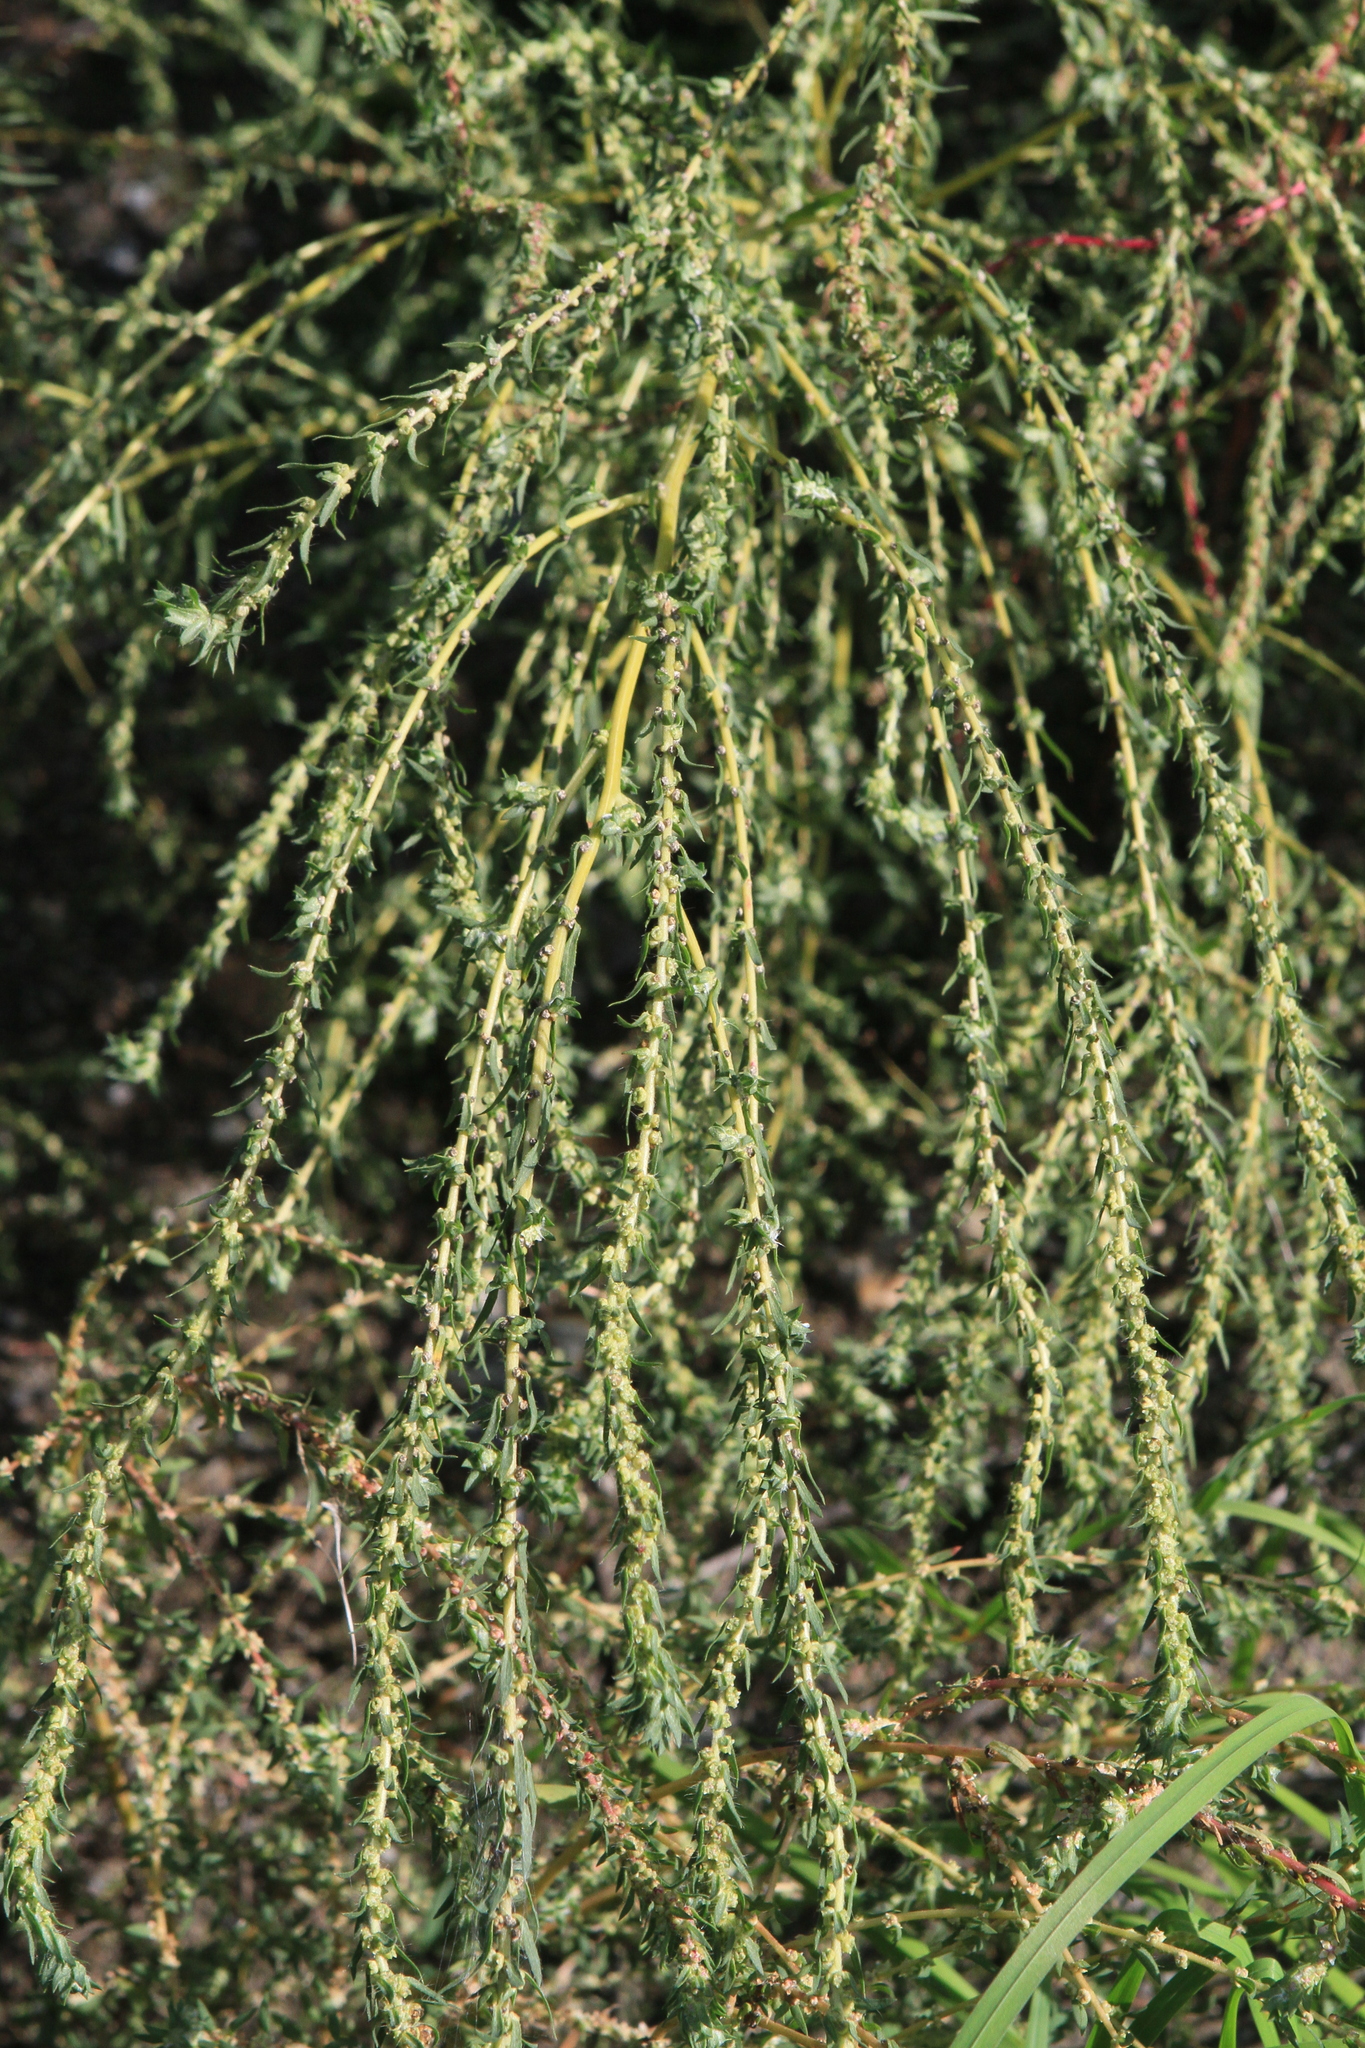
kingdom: Plantae
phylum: Tracheophyta
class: Magnoliopsida
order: Caryophyllales
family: Amaranthaceae
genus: Bassia
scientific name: Bassia scoparia
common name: Belvedere
